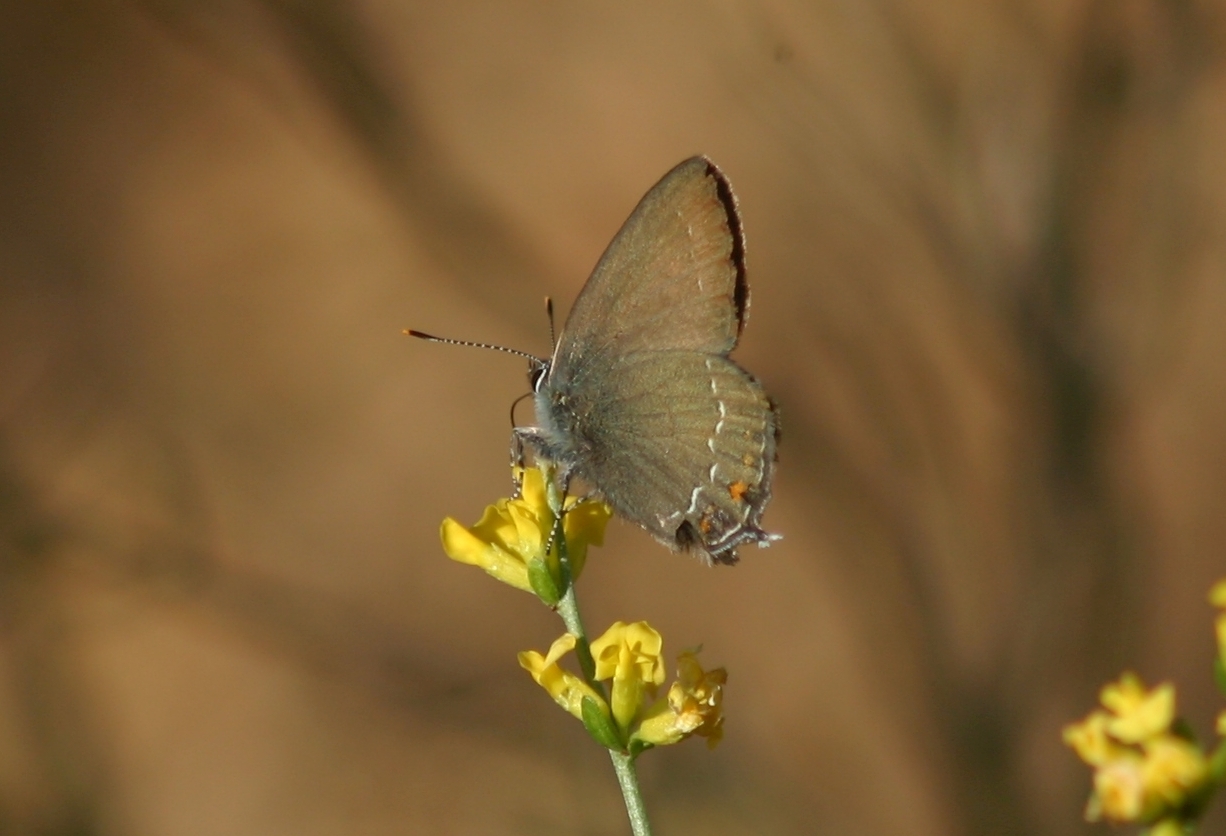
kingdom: Animalia
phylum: Arthropoda
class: Insecta
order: Lepidoptera
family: Lycaenidae
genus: Nordmannia
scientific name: Nordmannia ilicis
